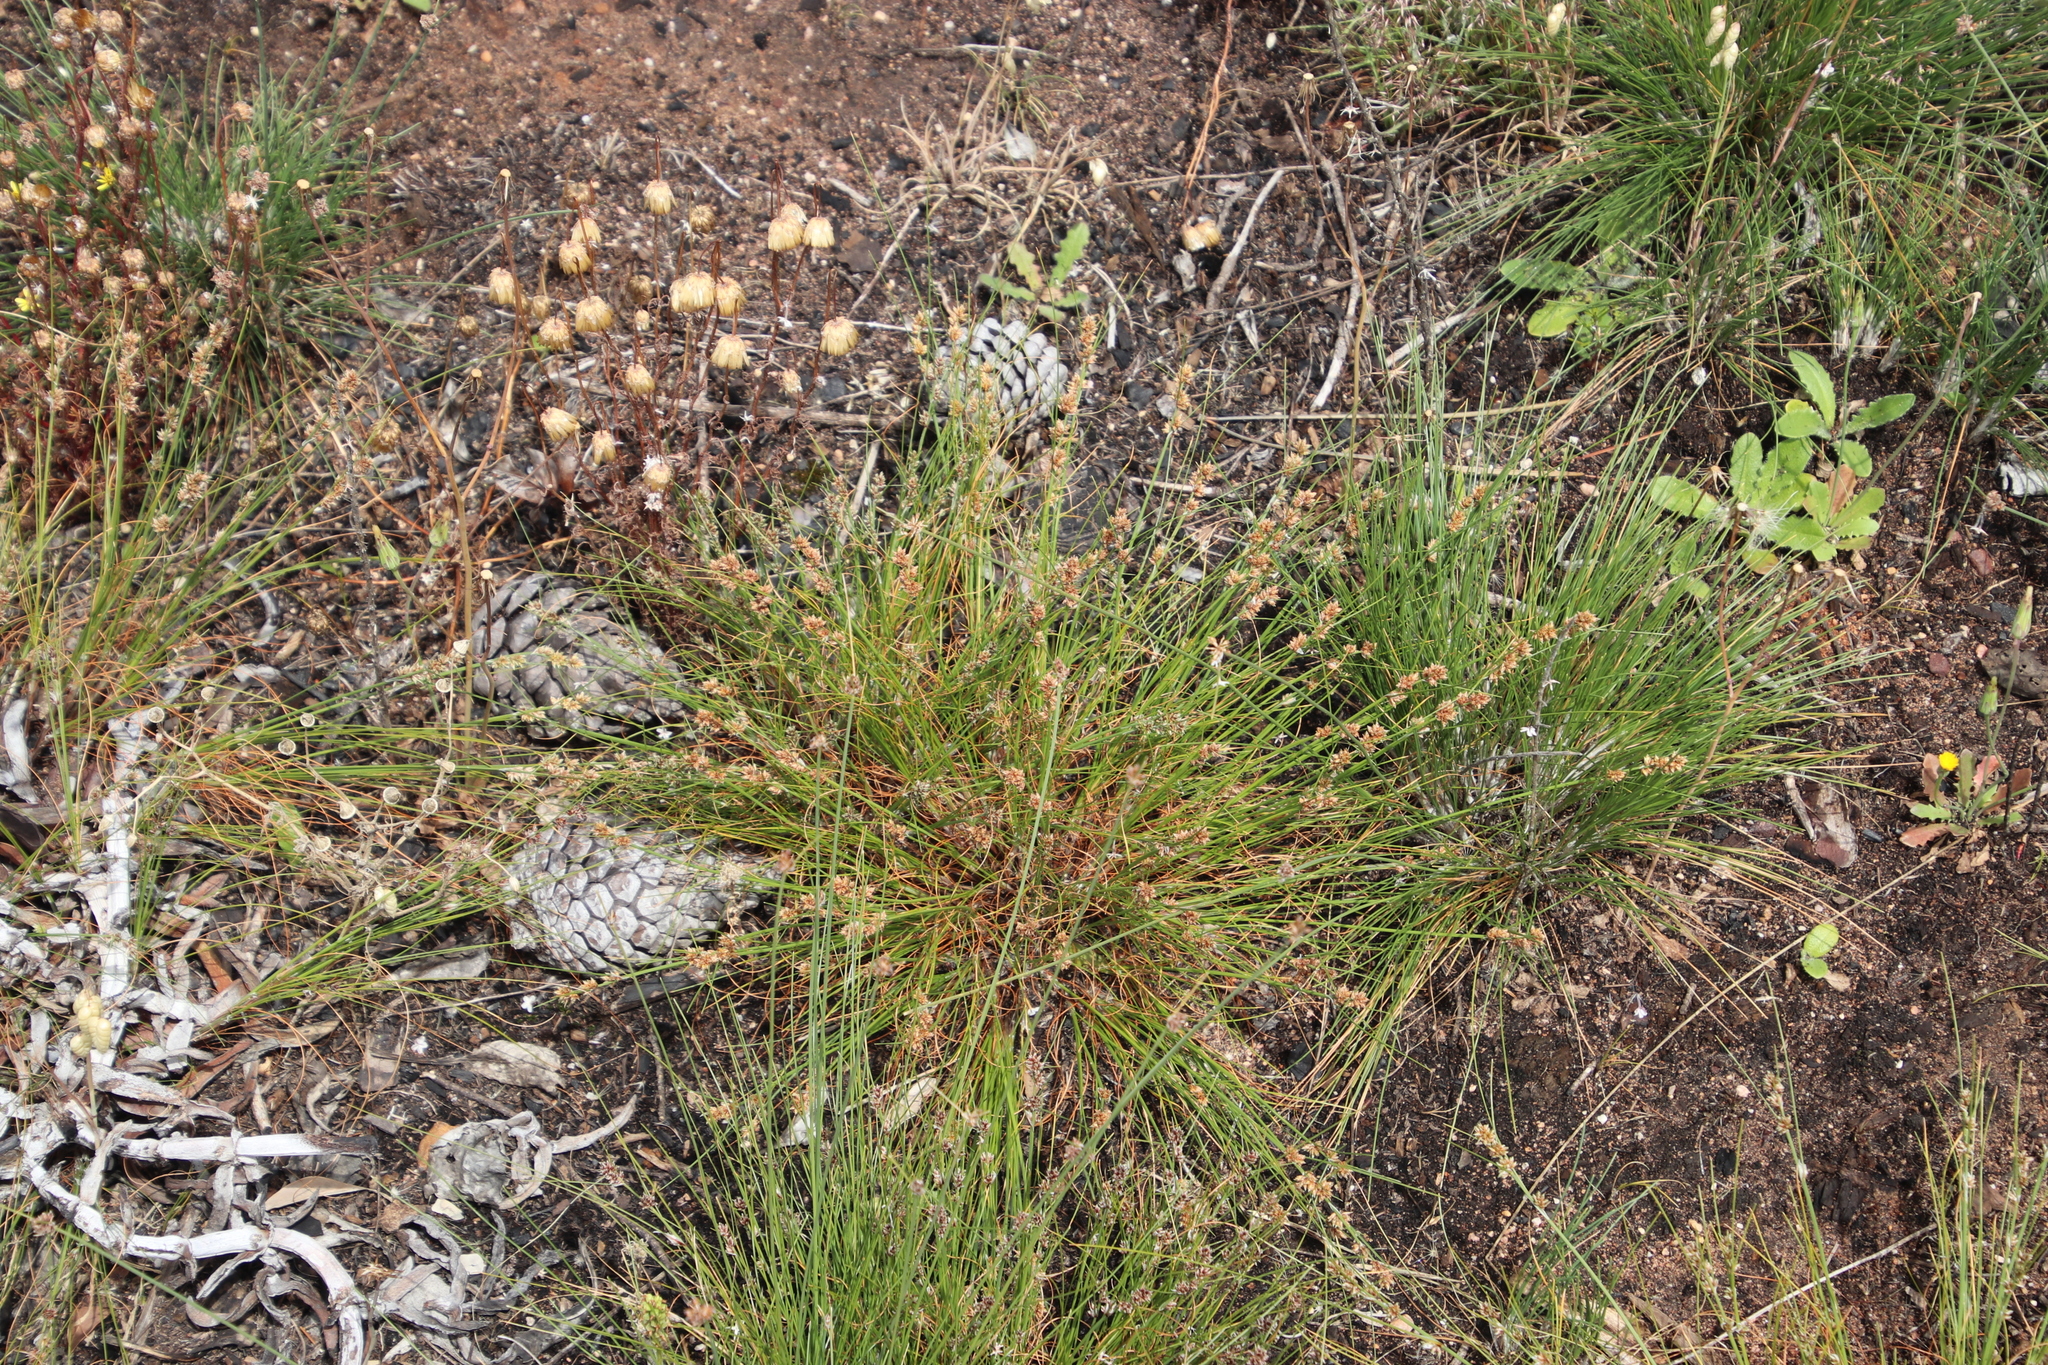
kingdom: Plantae
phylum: Tracheophyta
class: Liliopsida
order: Poales
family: Cyperaceae
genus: Ficinia
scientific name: Ficinia bulbosa
